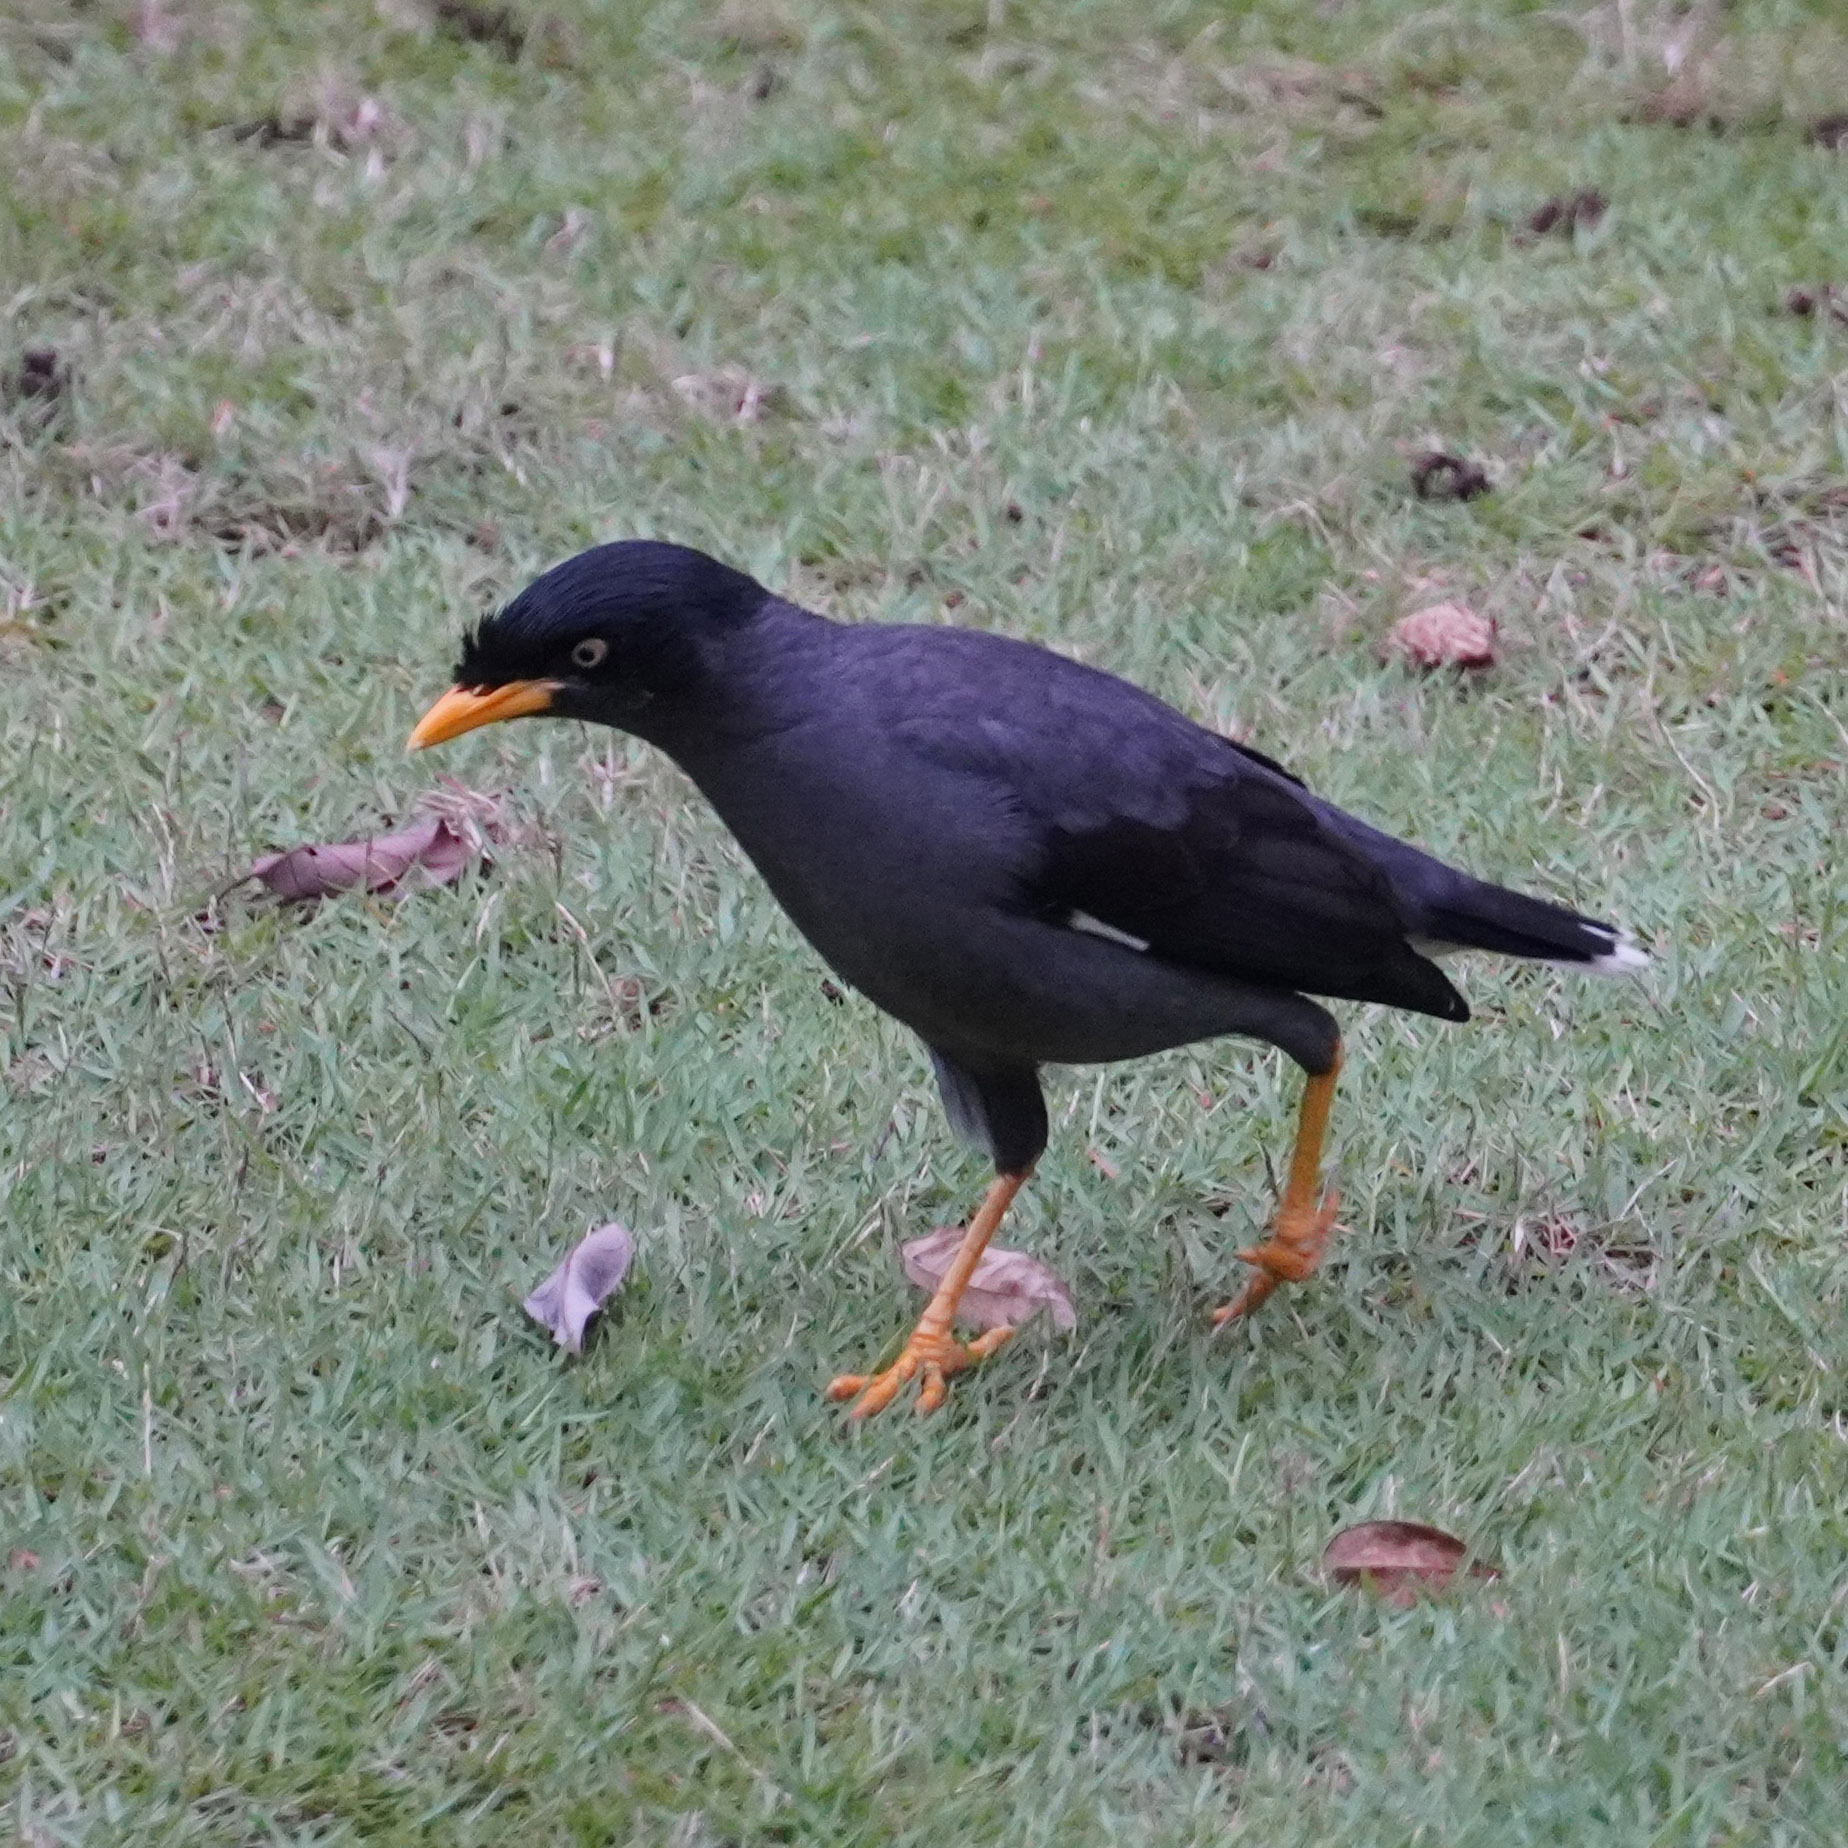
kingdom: Animalia
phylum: Chordata
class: Aves
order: Passeriformes
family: Sturnidae
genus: Acridotheres
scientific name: Acridotheres javanicus
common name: Javan myna
